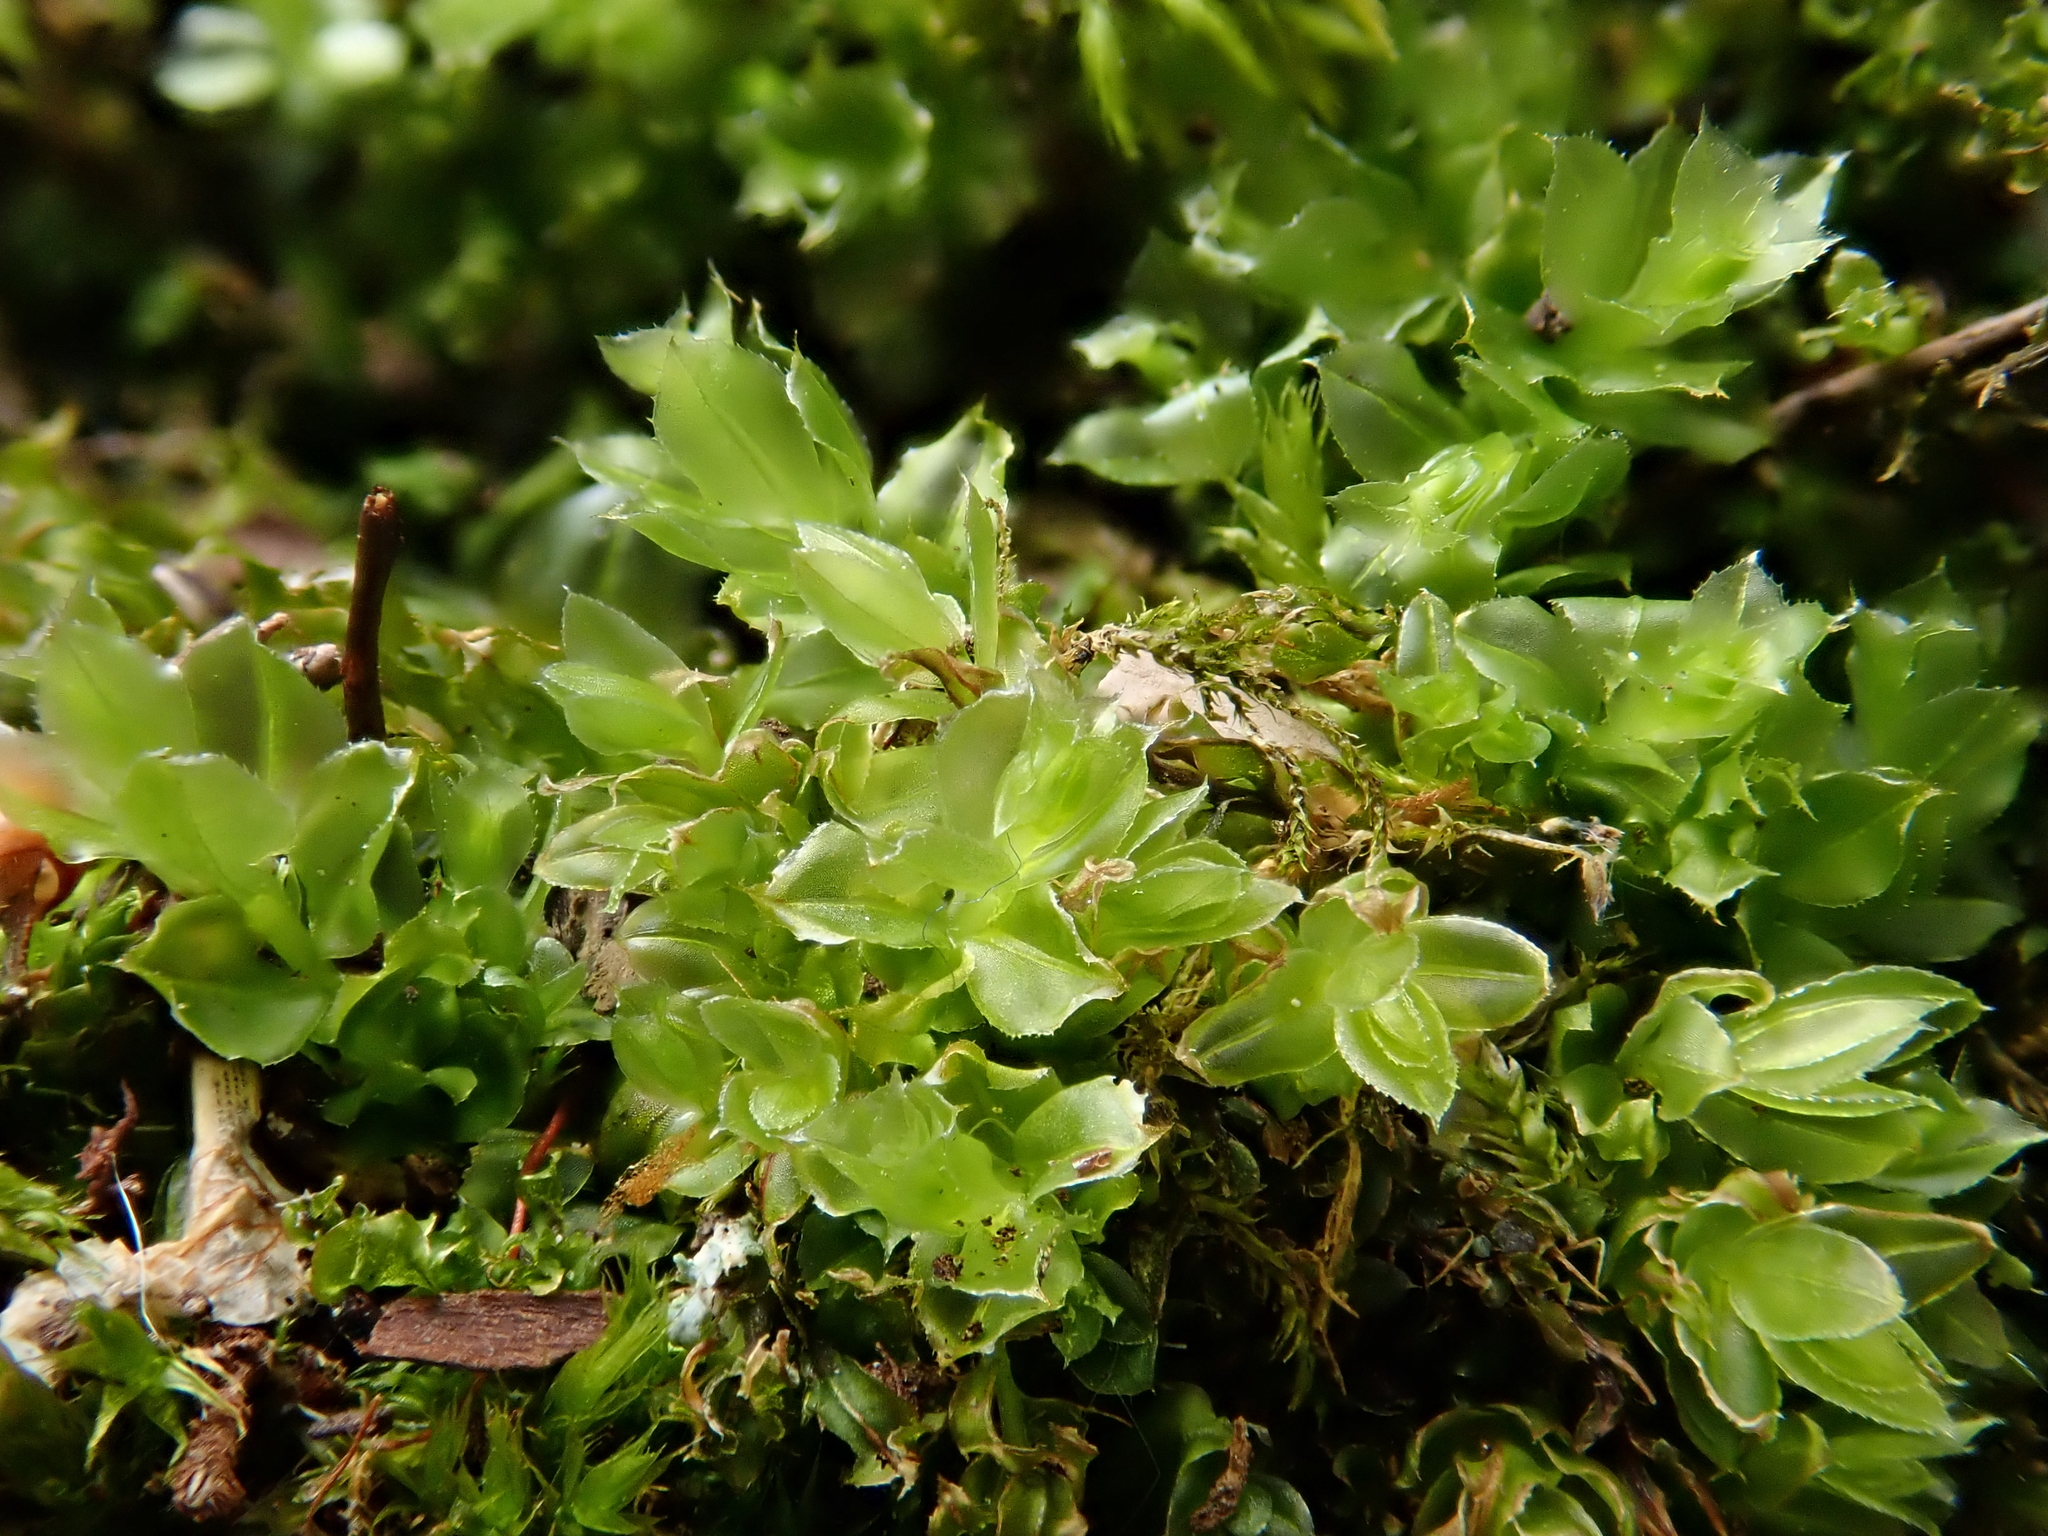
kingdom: Plantae
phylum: Bryophyta
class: Bryopsida
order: Bryales
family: Mniaceae
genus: Plagiomnium
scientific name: Plagiomnium cuspidatum
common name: Woodsy leafy moss
